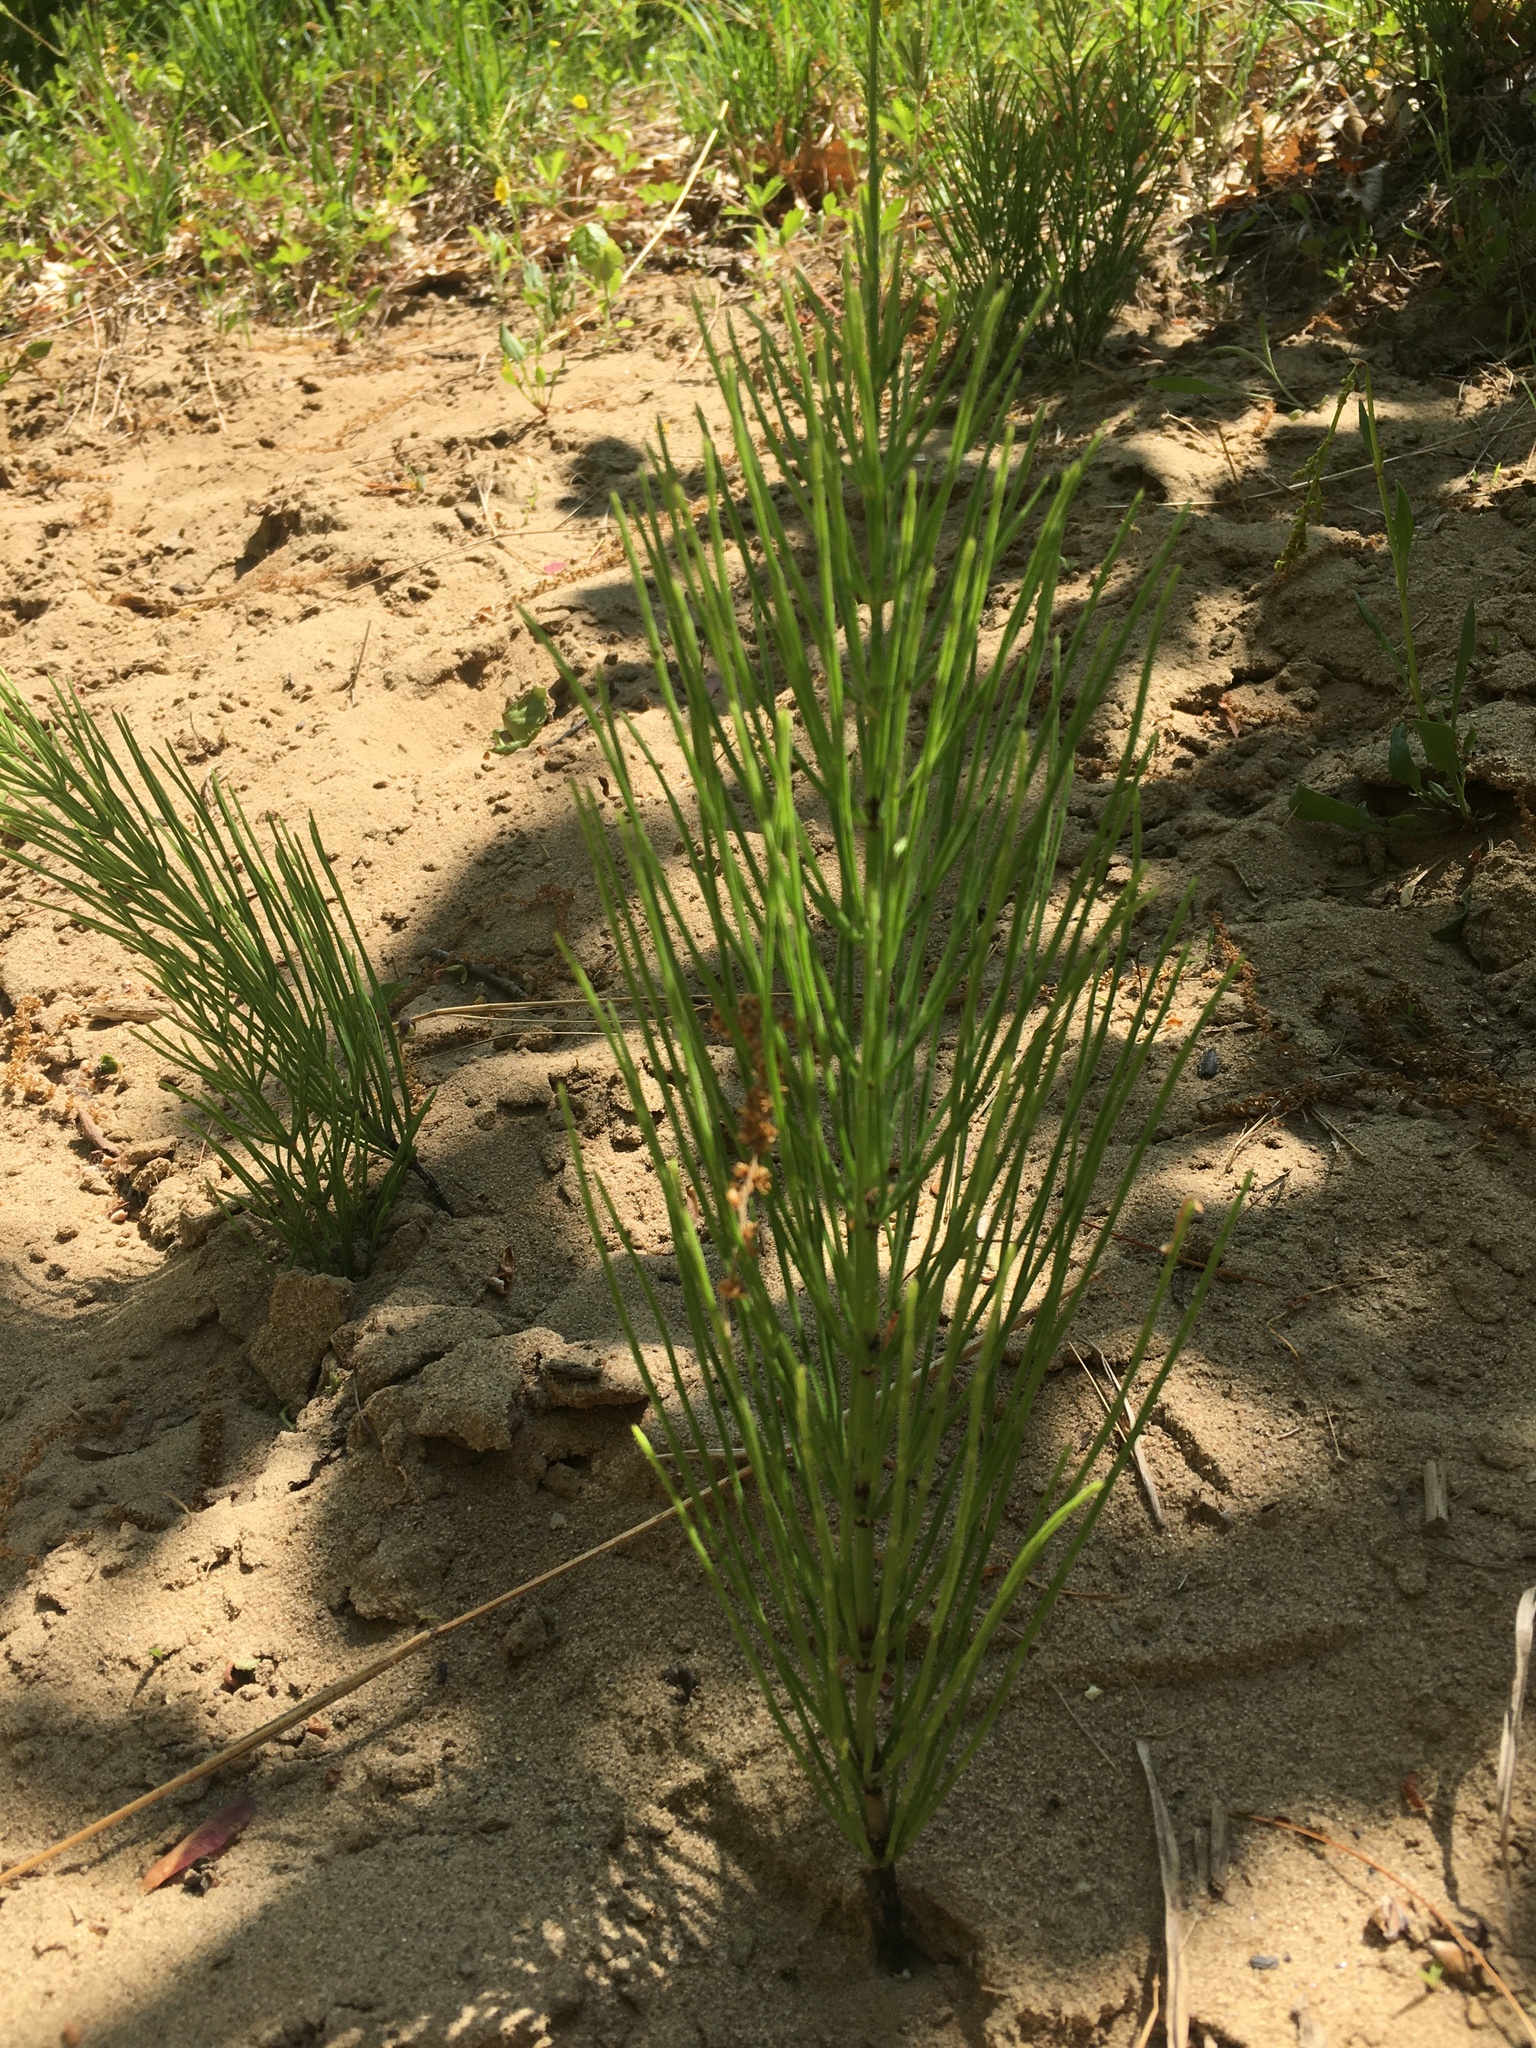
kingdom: Plantae
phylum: Tracheophyta
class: Polypodiopsida
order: Equisetales
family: Equisetaceae
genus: Equisetum
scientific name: Equisetum arvense
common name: Field horsetail
